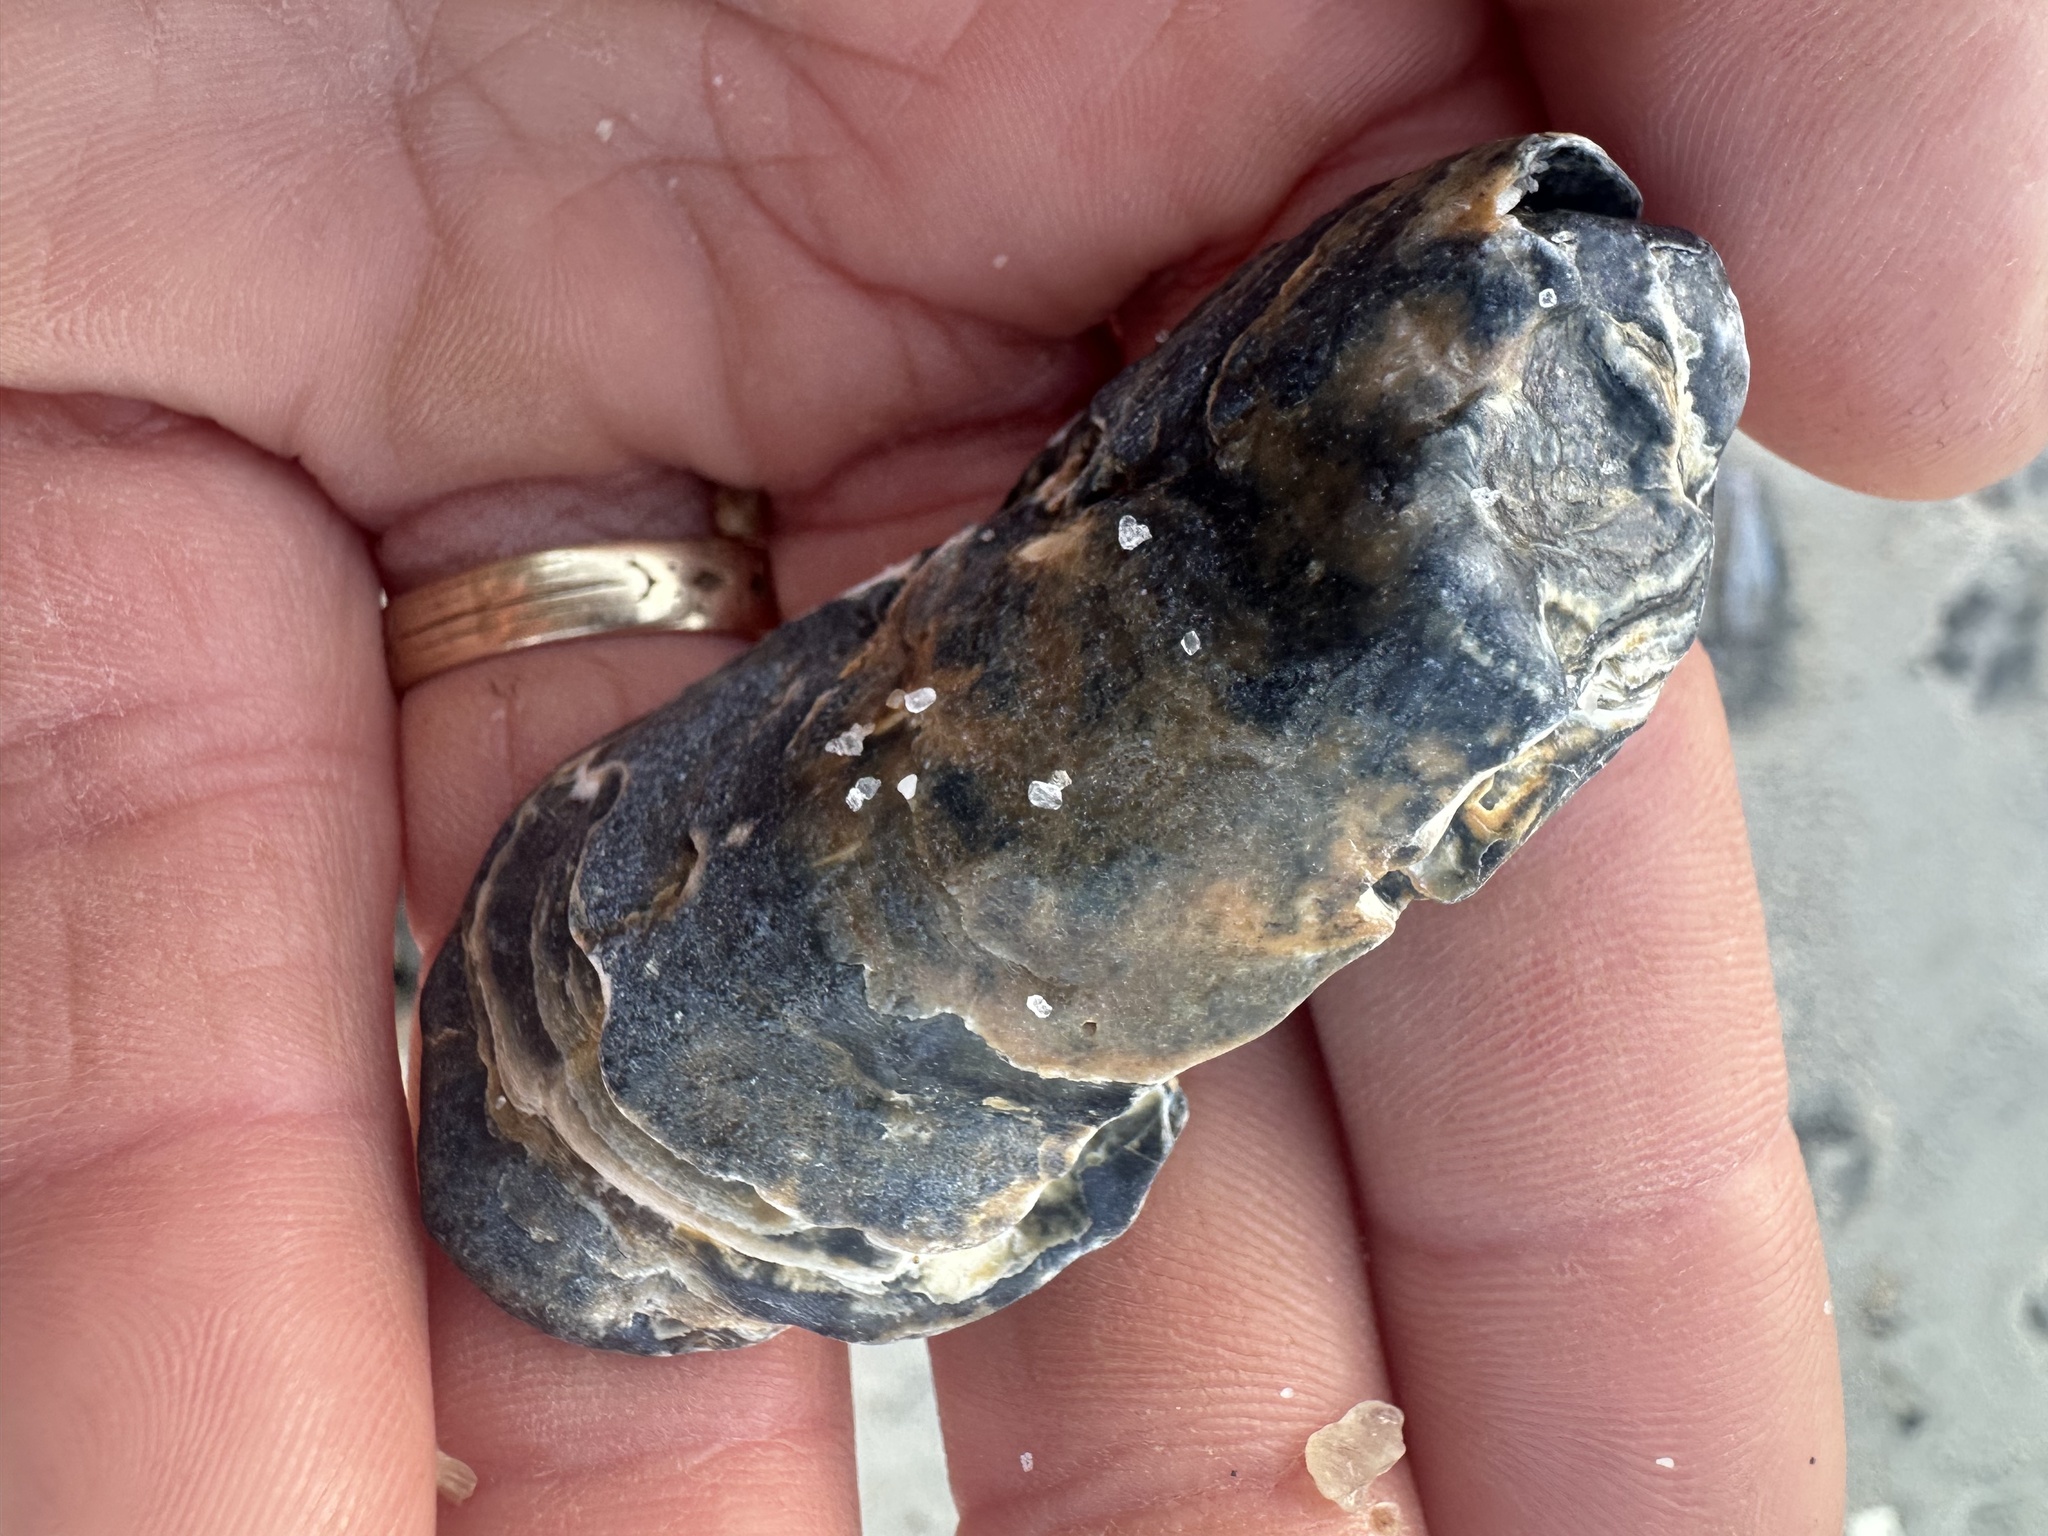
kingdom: Animalia
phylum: Mollusca
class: Bivalvia
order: Ostreida
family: Ostreidae
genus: Crassostrea
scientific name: Crassostrea virginica
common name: American oyster
